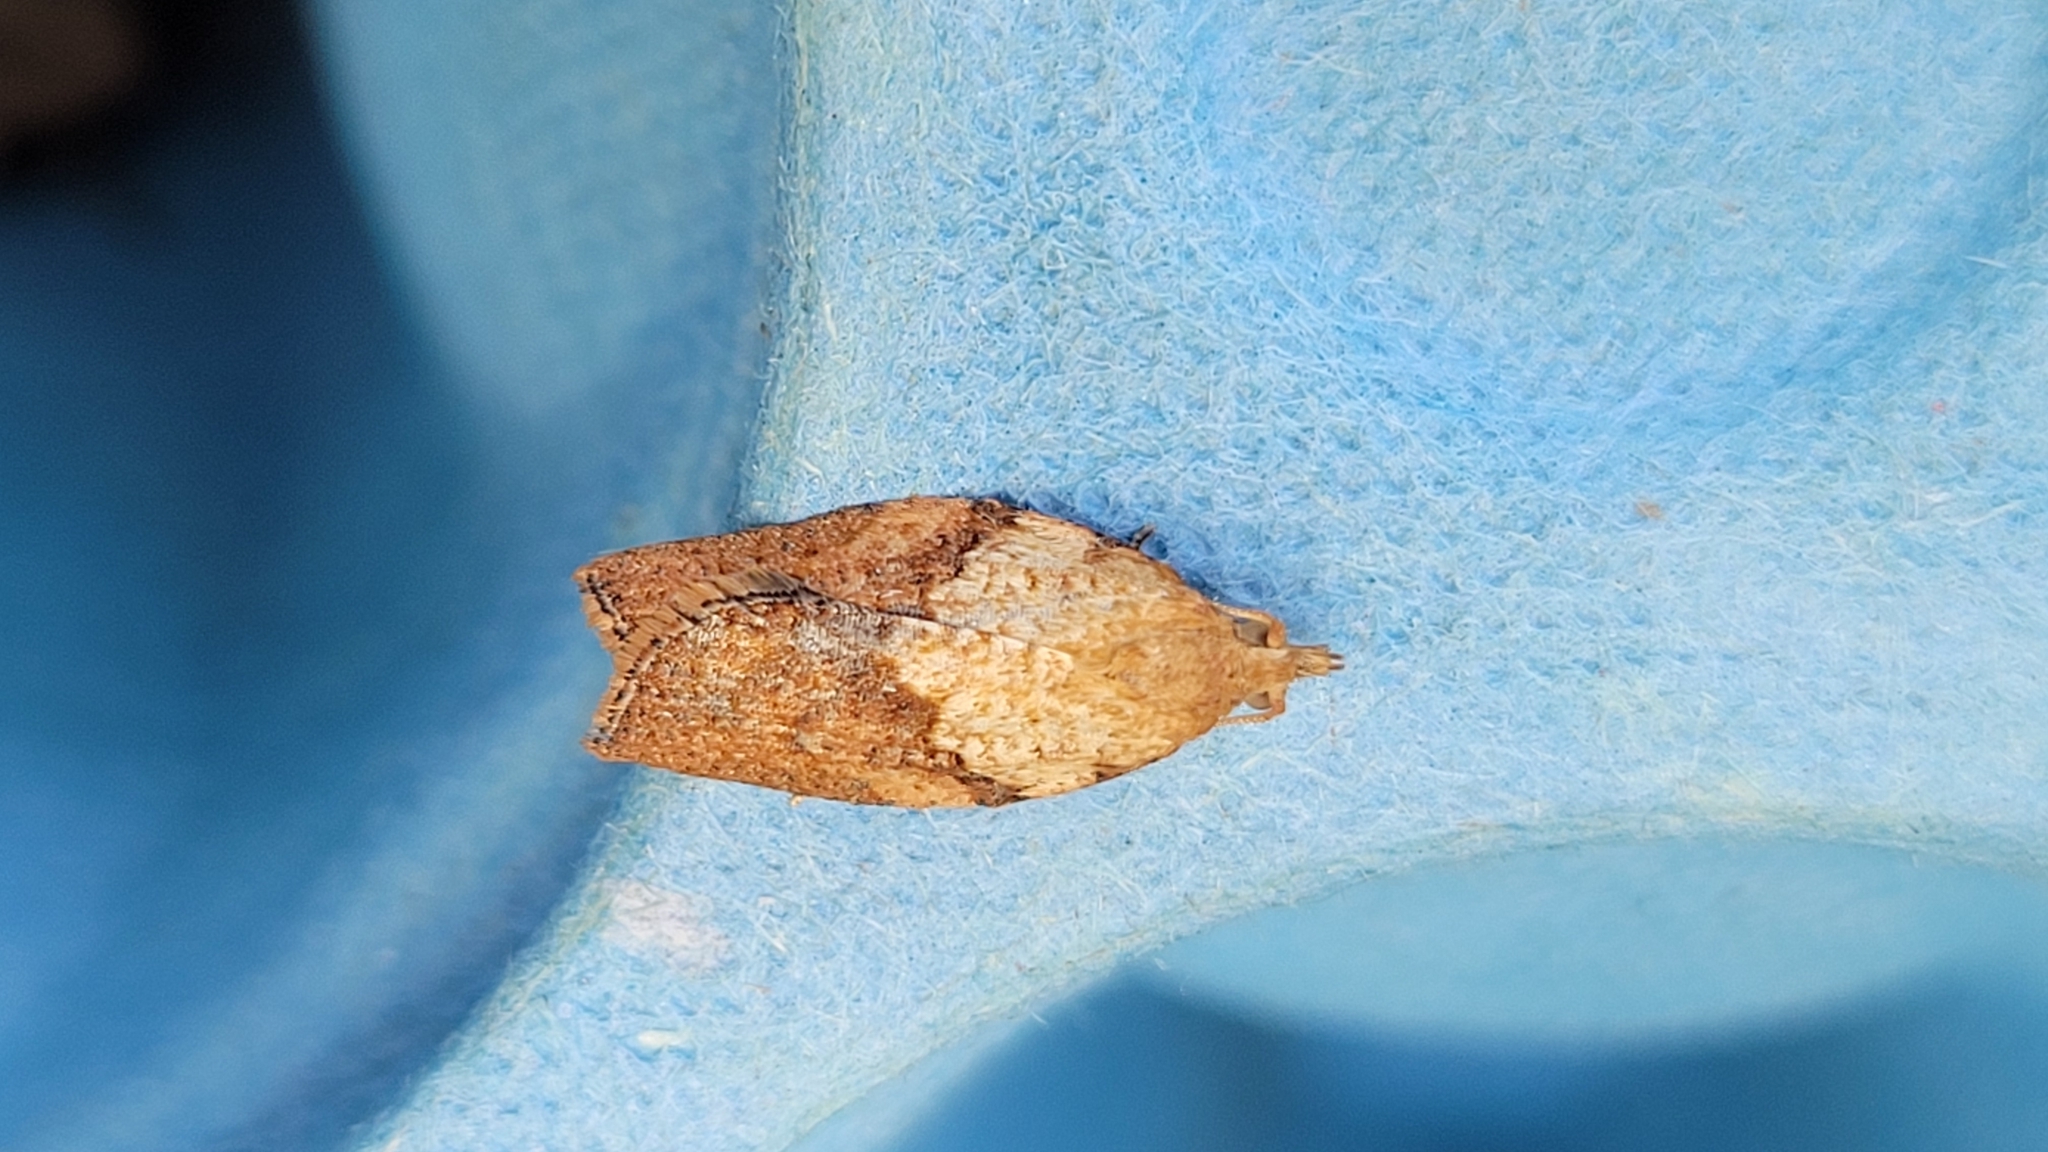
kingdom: Animalia
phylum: Arthropoda
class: Insecta
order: Lepidoptera
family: Tortricidae
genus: Epiphyas
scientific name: Epiphyas postvittana
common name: Light brown apple moth
